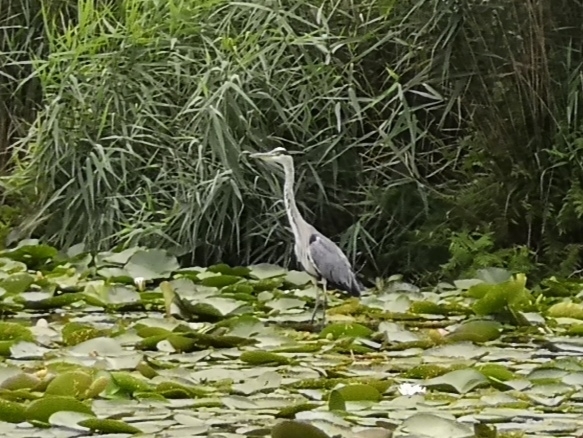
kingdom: Animalia
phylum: Chordata
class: Aves
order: Pelecaniformes
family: Ardeidae
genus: Ardea
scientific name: Ardea cinerea
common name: Grey heron
